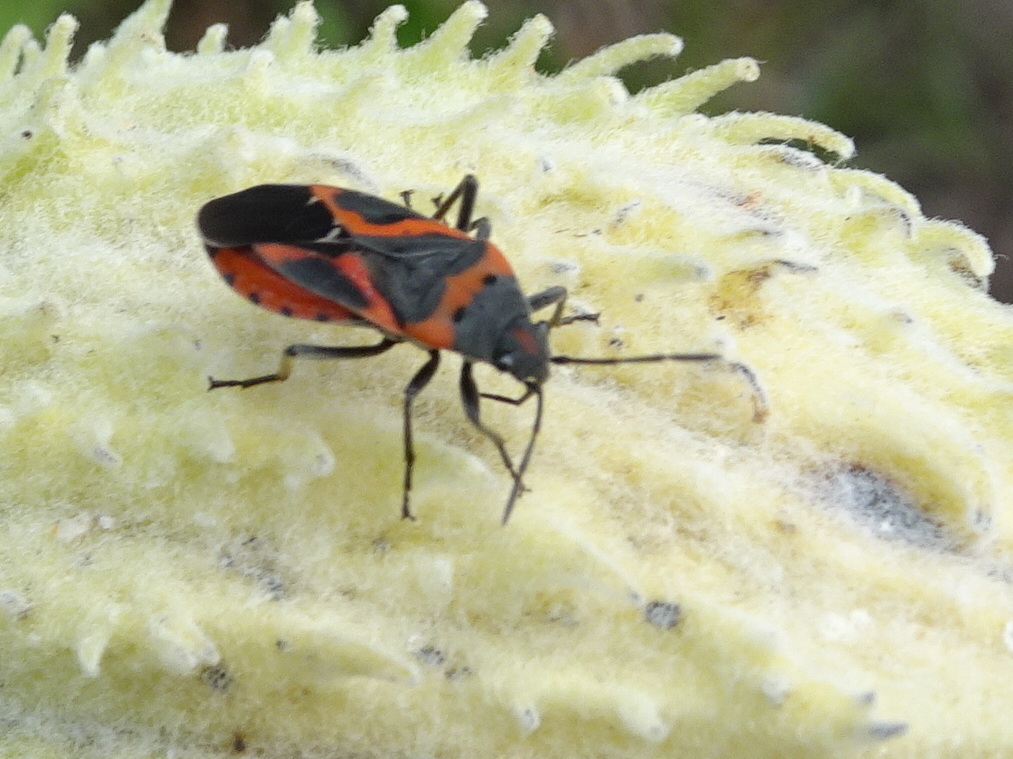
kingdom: Animalia
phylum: Arthropoda
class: Insecta
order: Hemiptera
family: Lygaeidae
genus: Lygaeus
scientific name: Lygaeus kalmii
